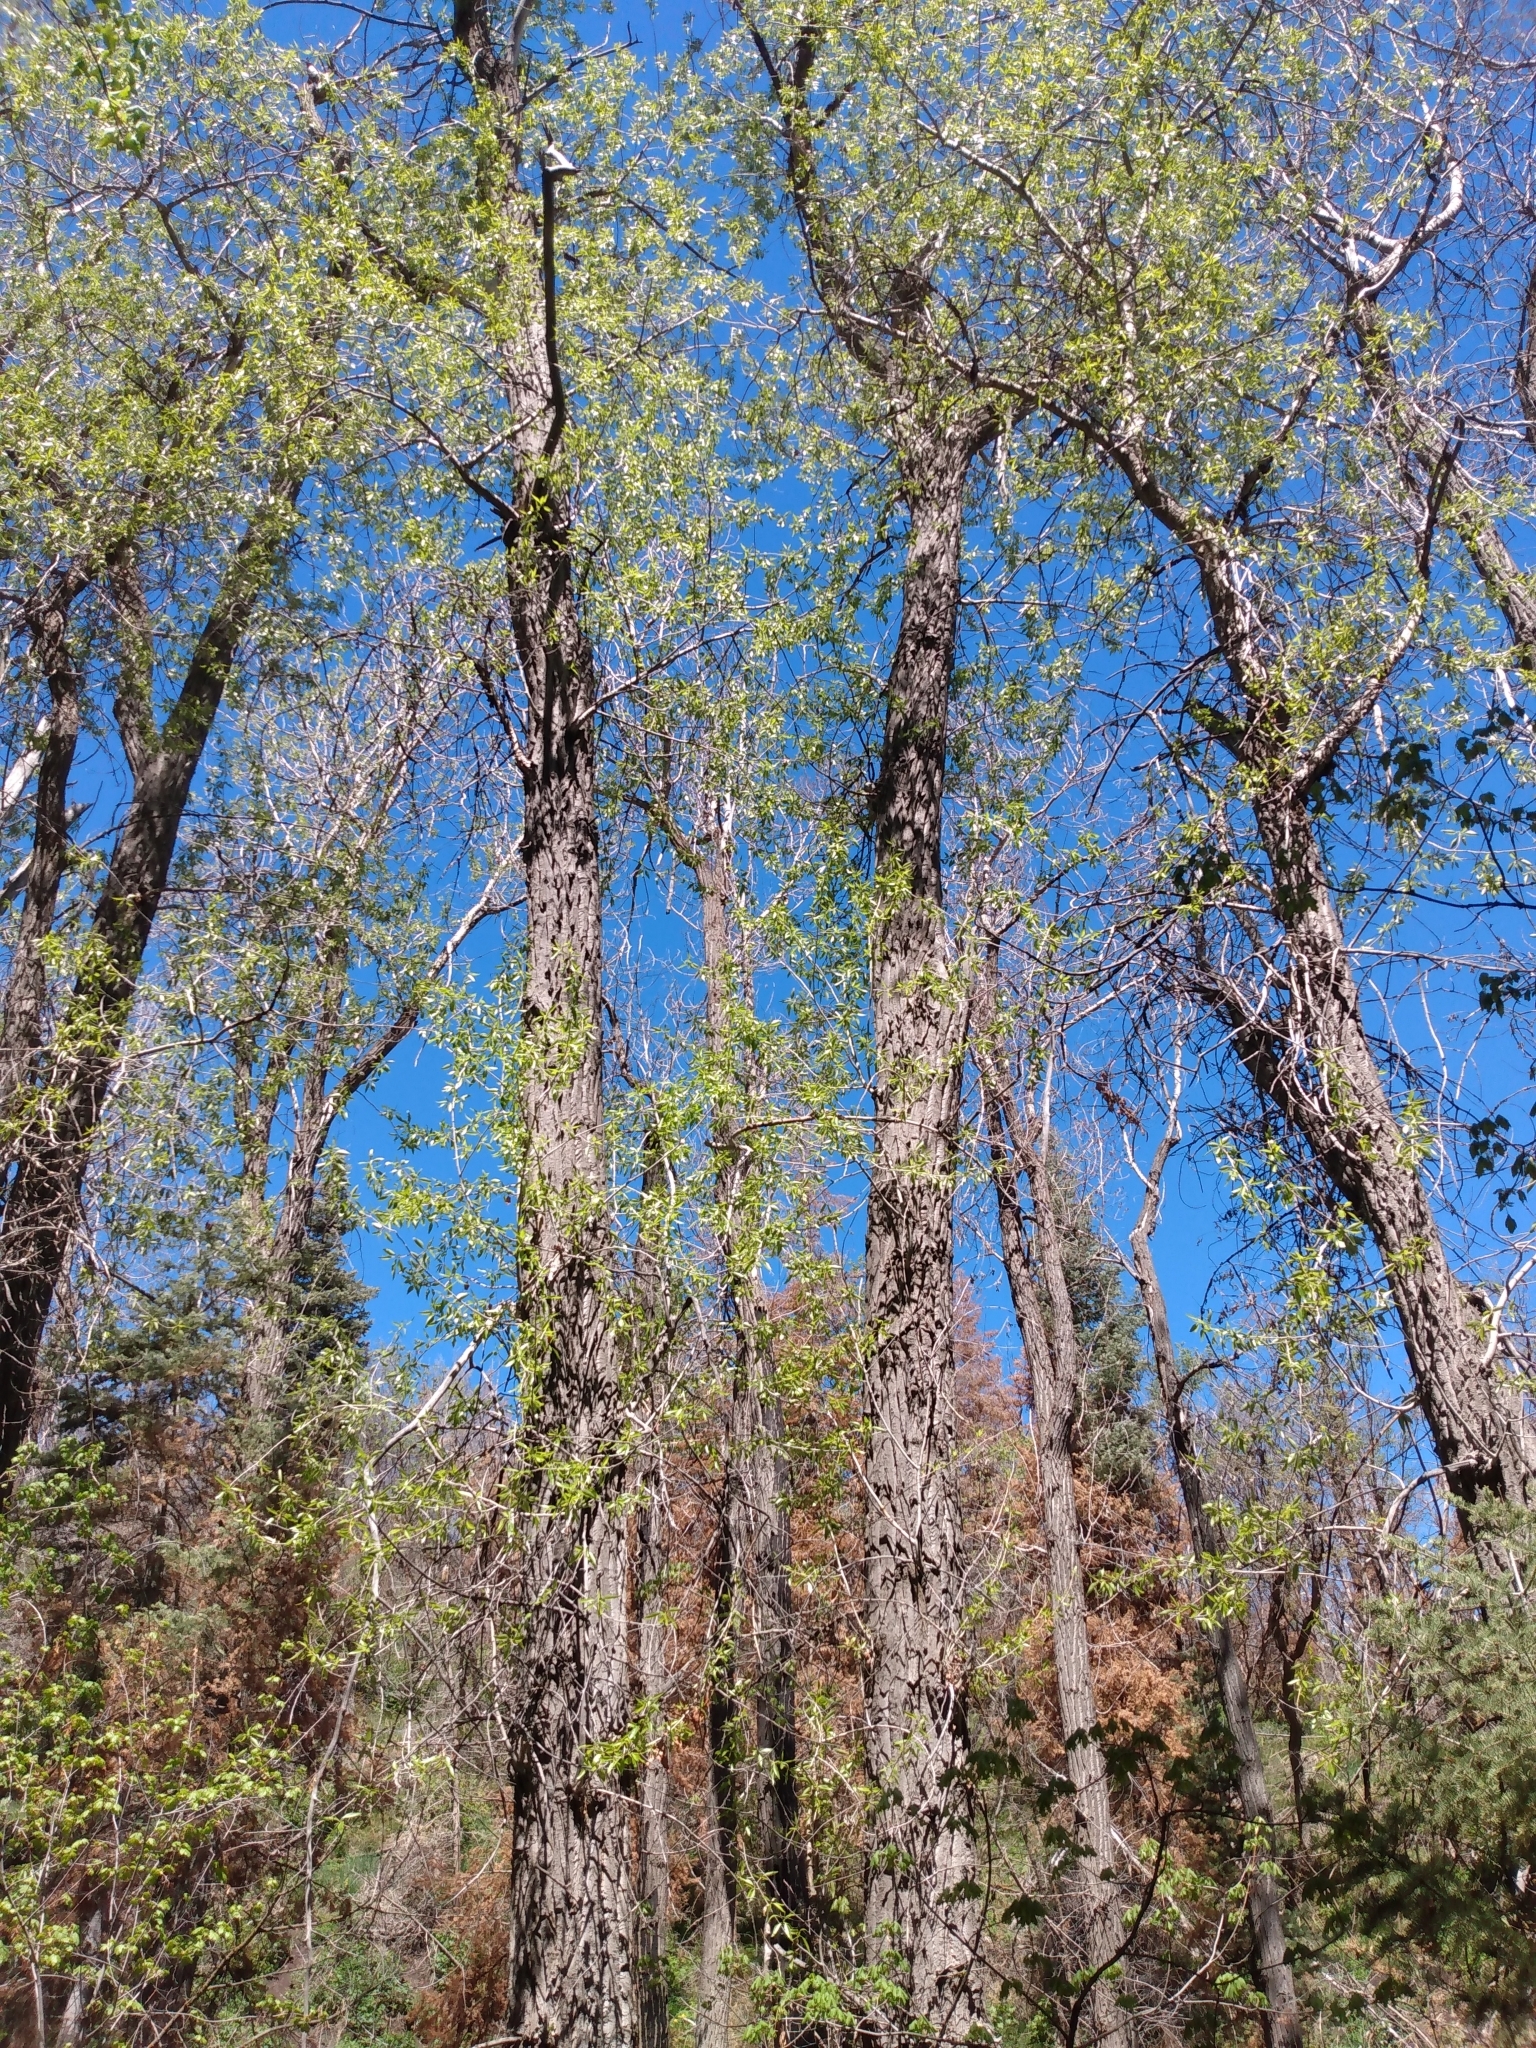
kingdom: Fungi
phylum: Ascomycota
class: Pezizomycetes
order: Pezizales
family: Morchellaceae
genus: Morchella
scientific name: Morchella snyderi
